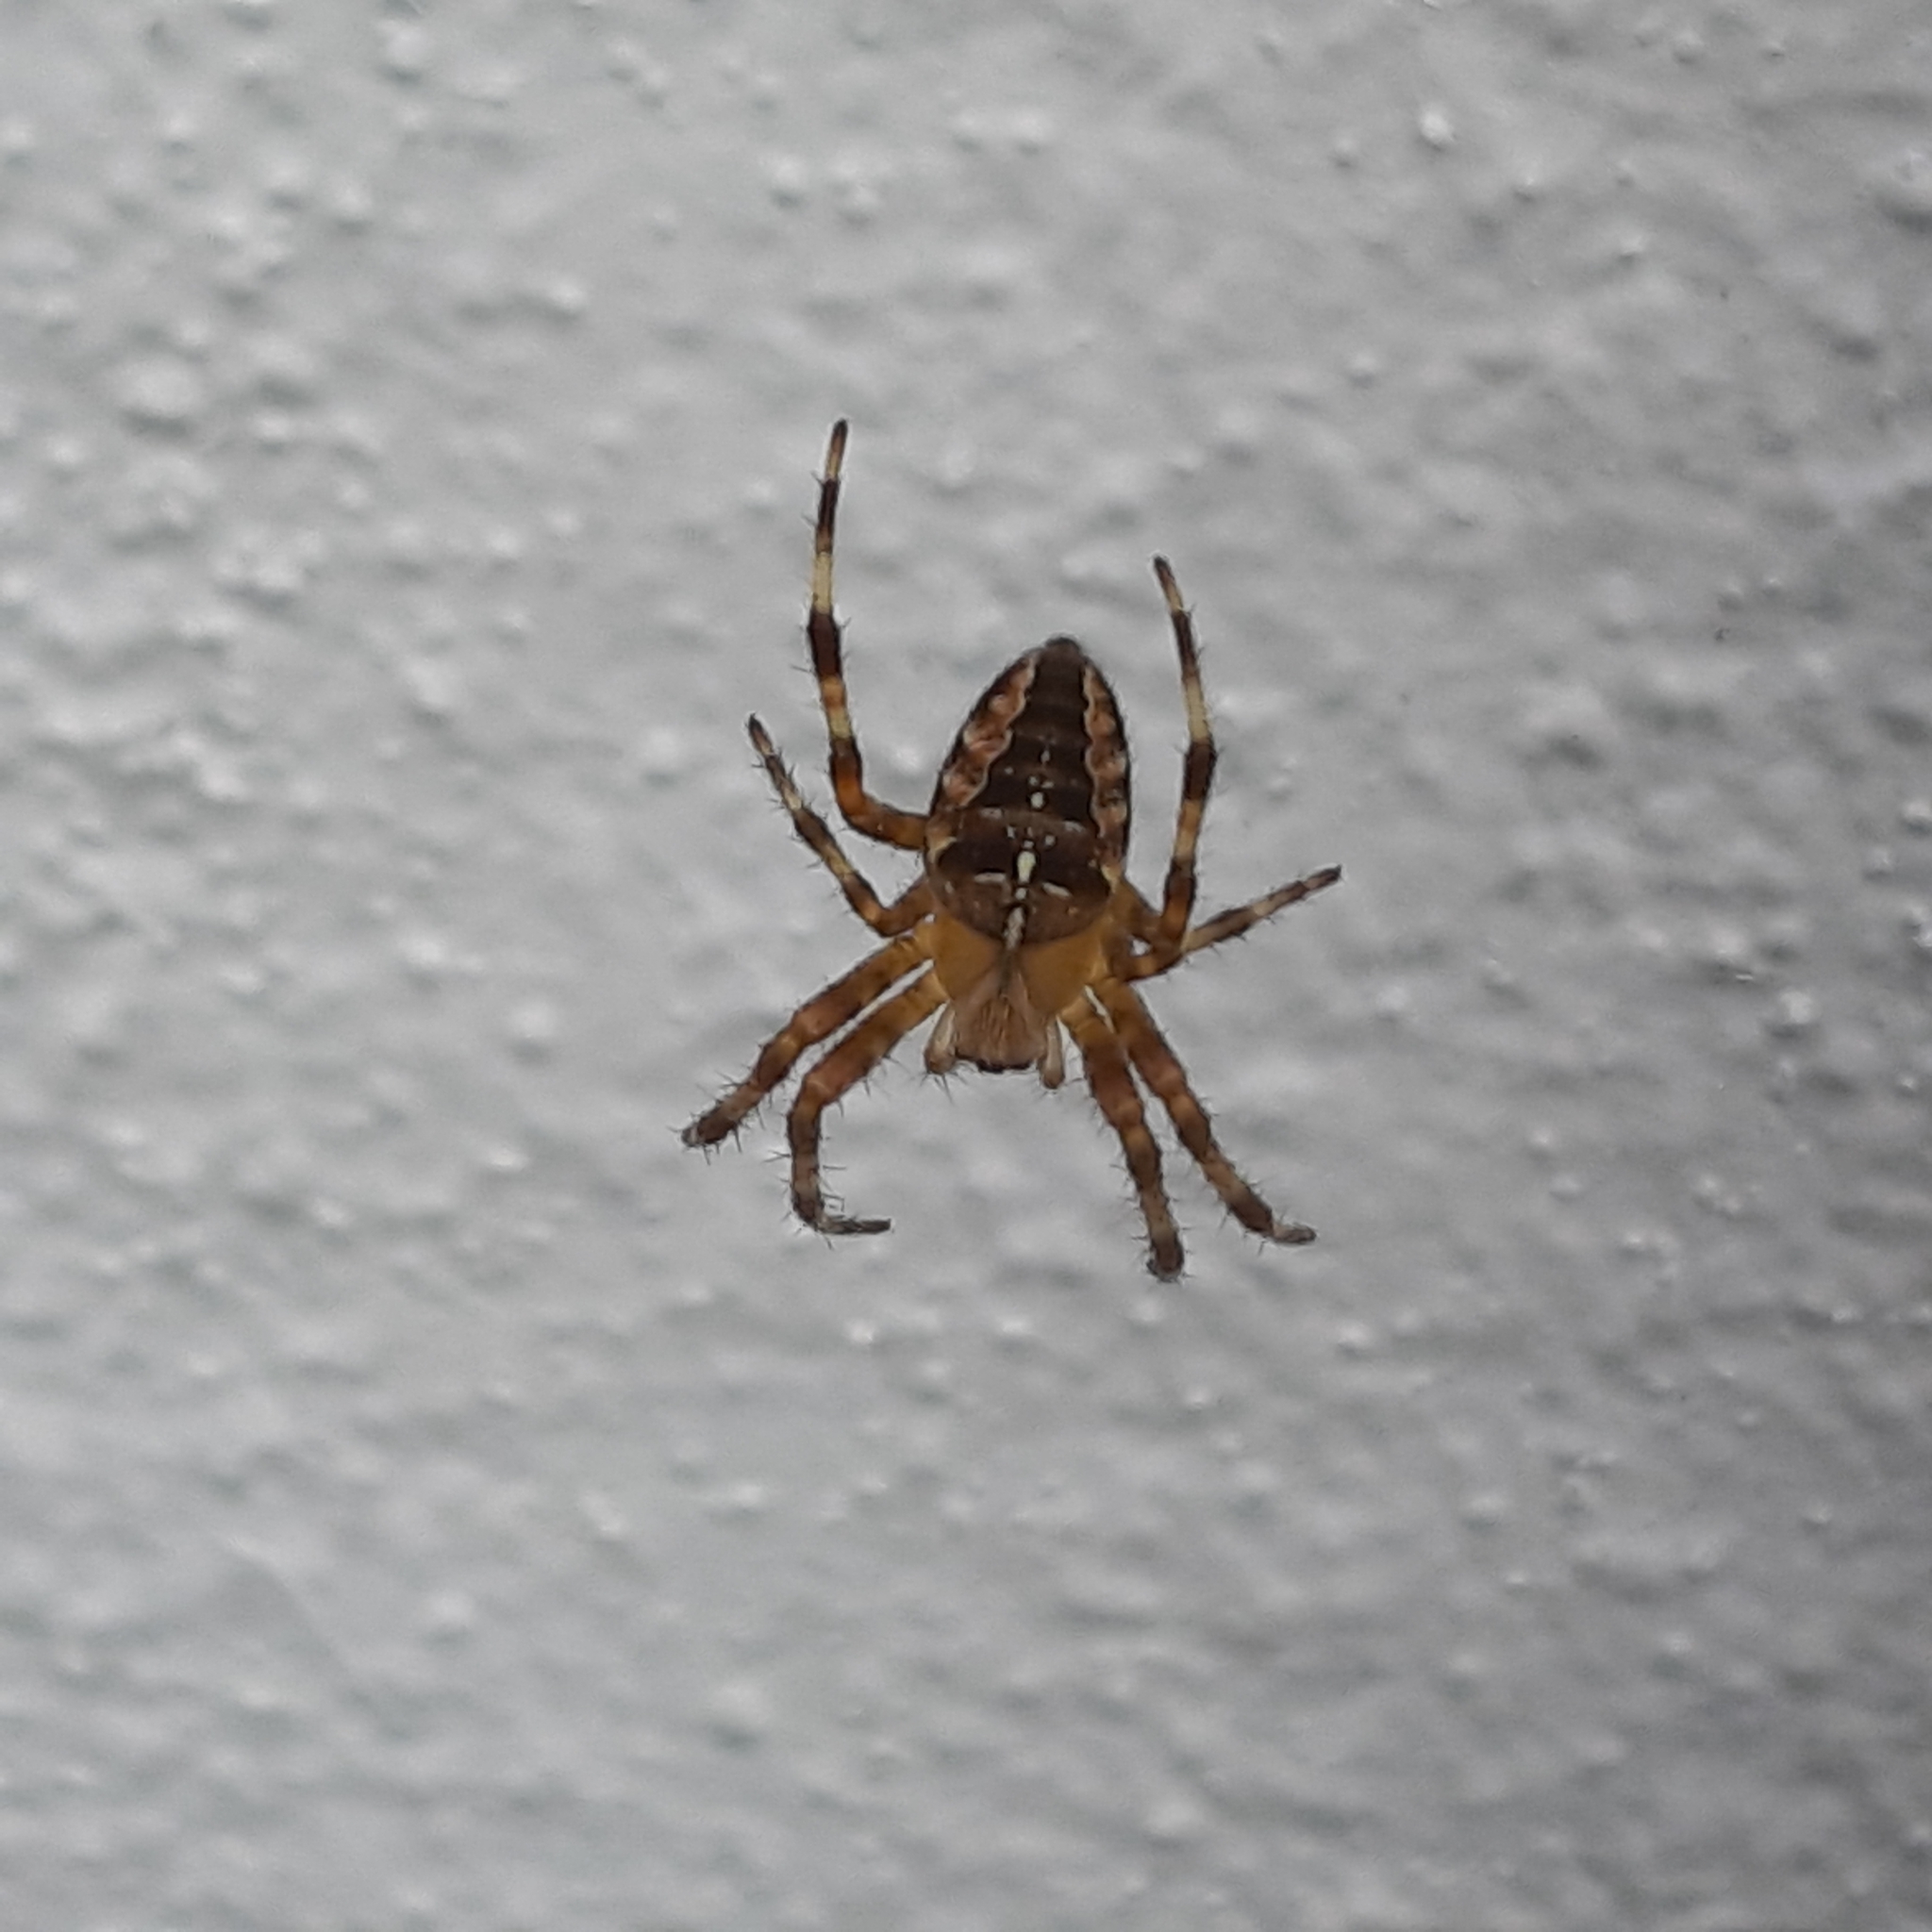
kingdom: Animalia
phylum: Arthropoda
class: Arachnida
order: Araneae
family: Araneidae
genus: Araneus
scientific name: Araneus diadematus
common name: Cross orbweaver
